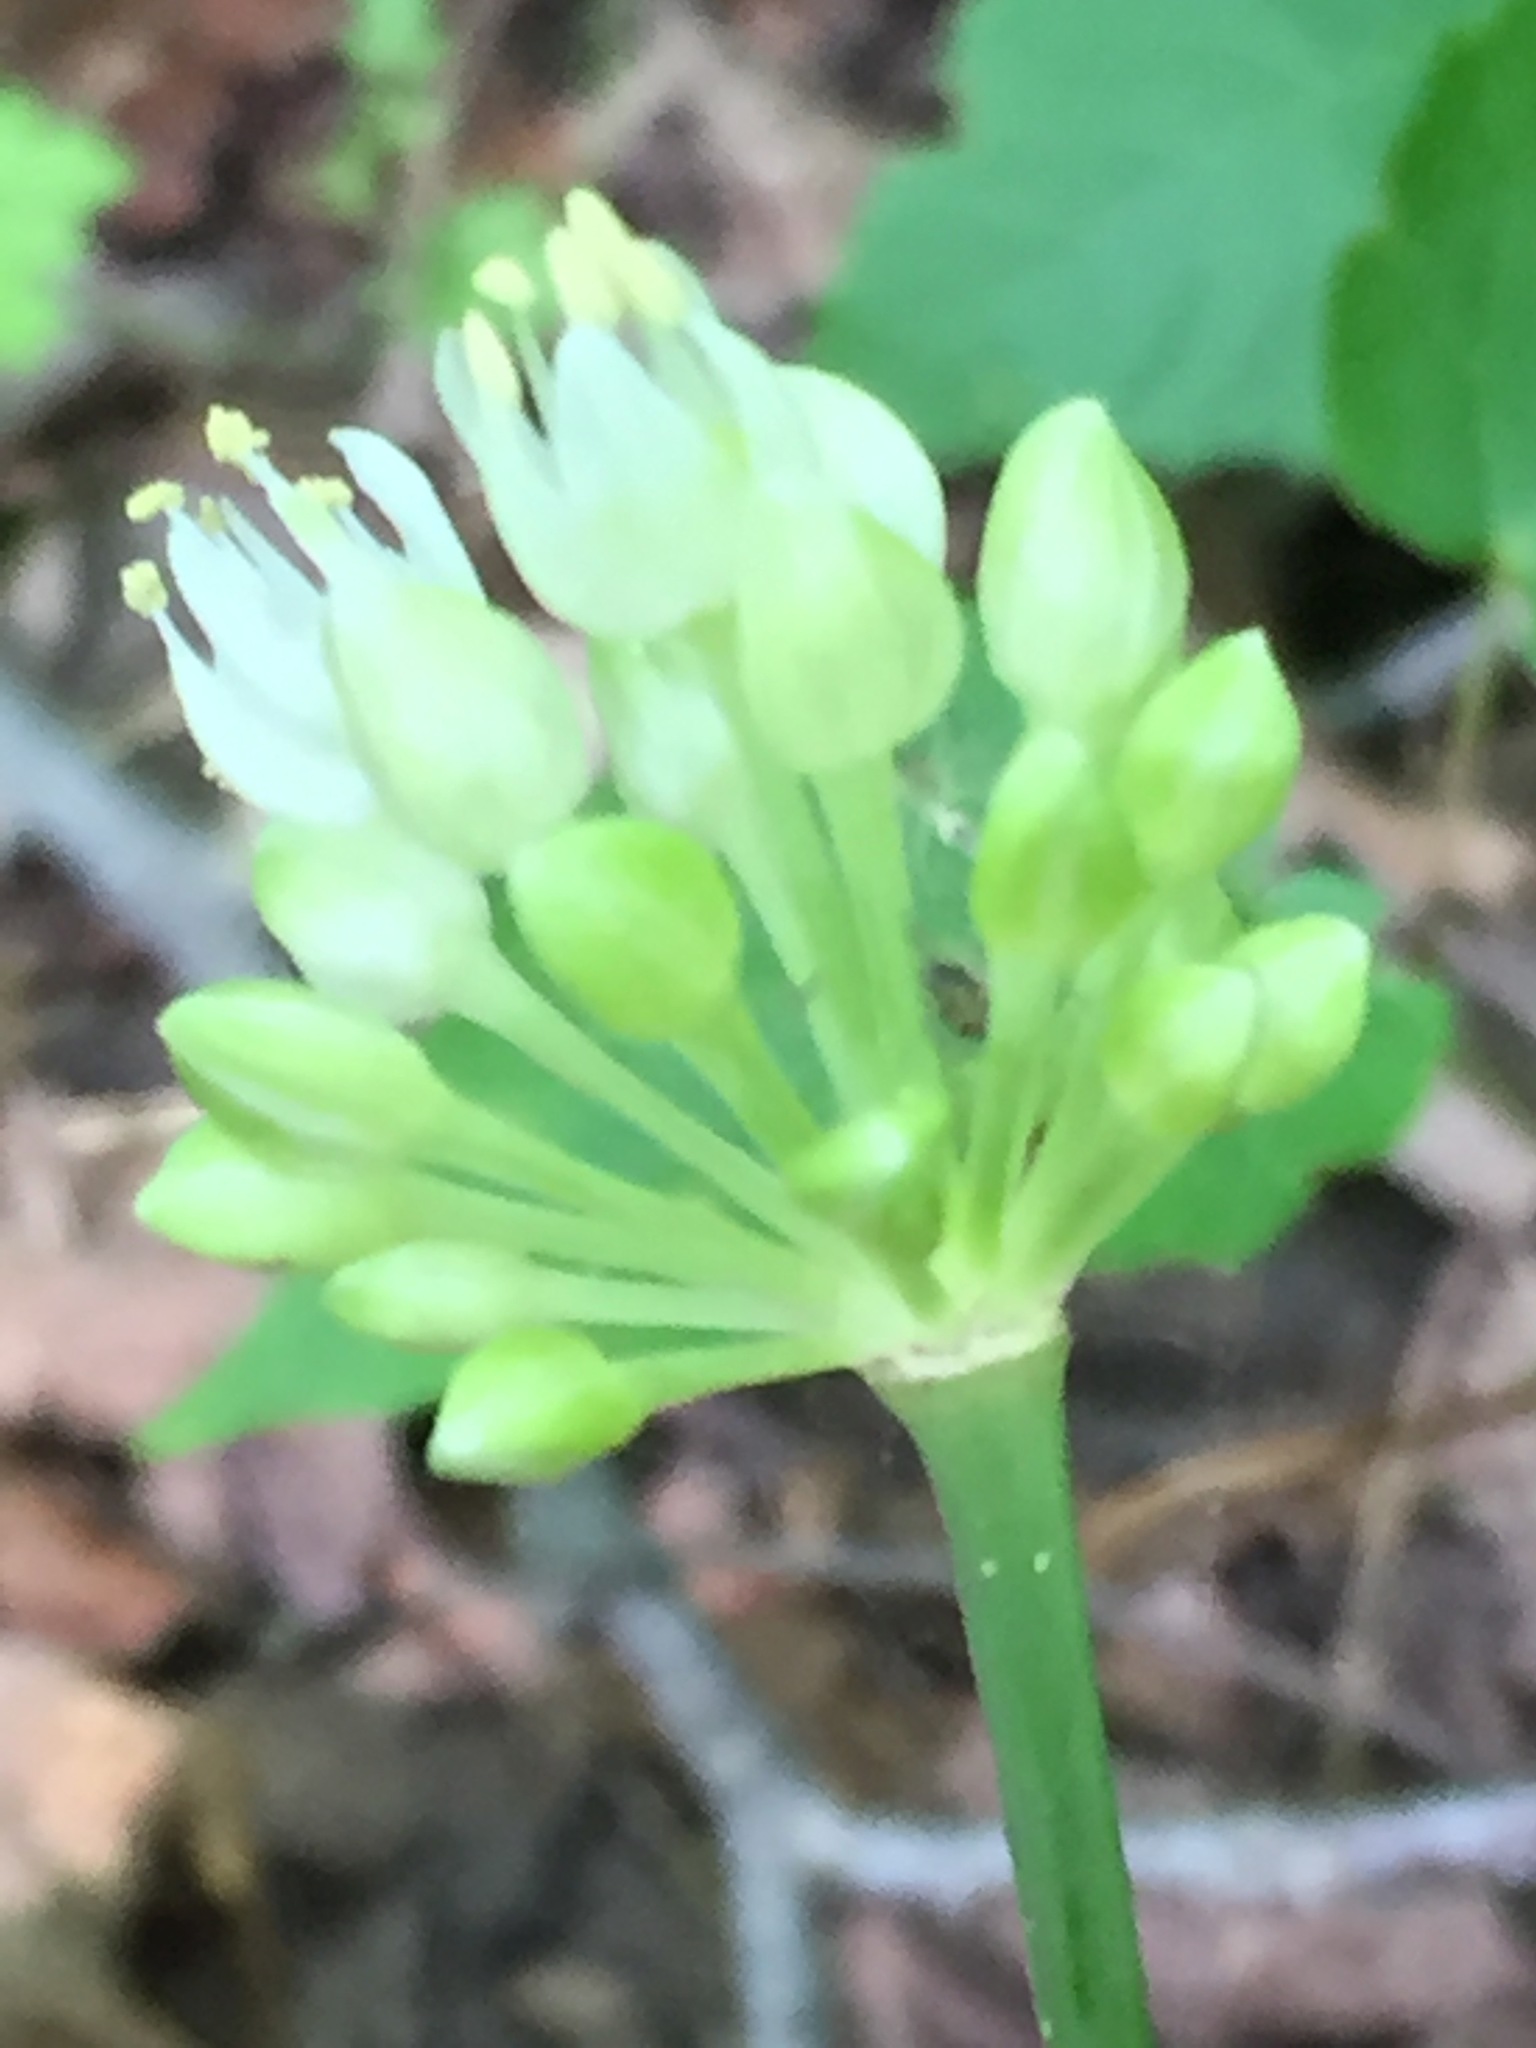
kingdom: Plantae
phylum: Tracheophyta
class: Liliopsida
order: Asparagales
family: Amaryllidaceae
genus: Allium
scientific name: Allium tricoccum
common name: Ramp
